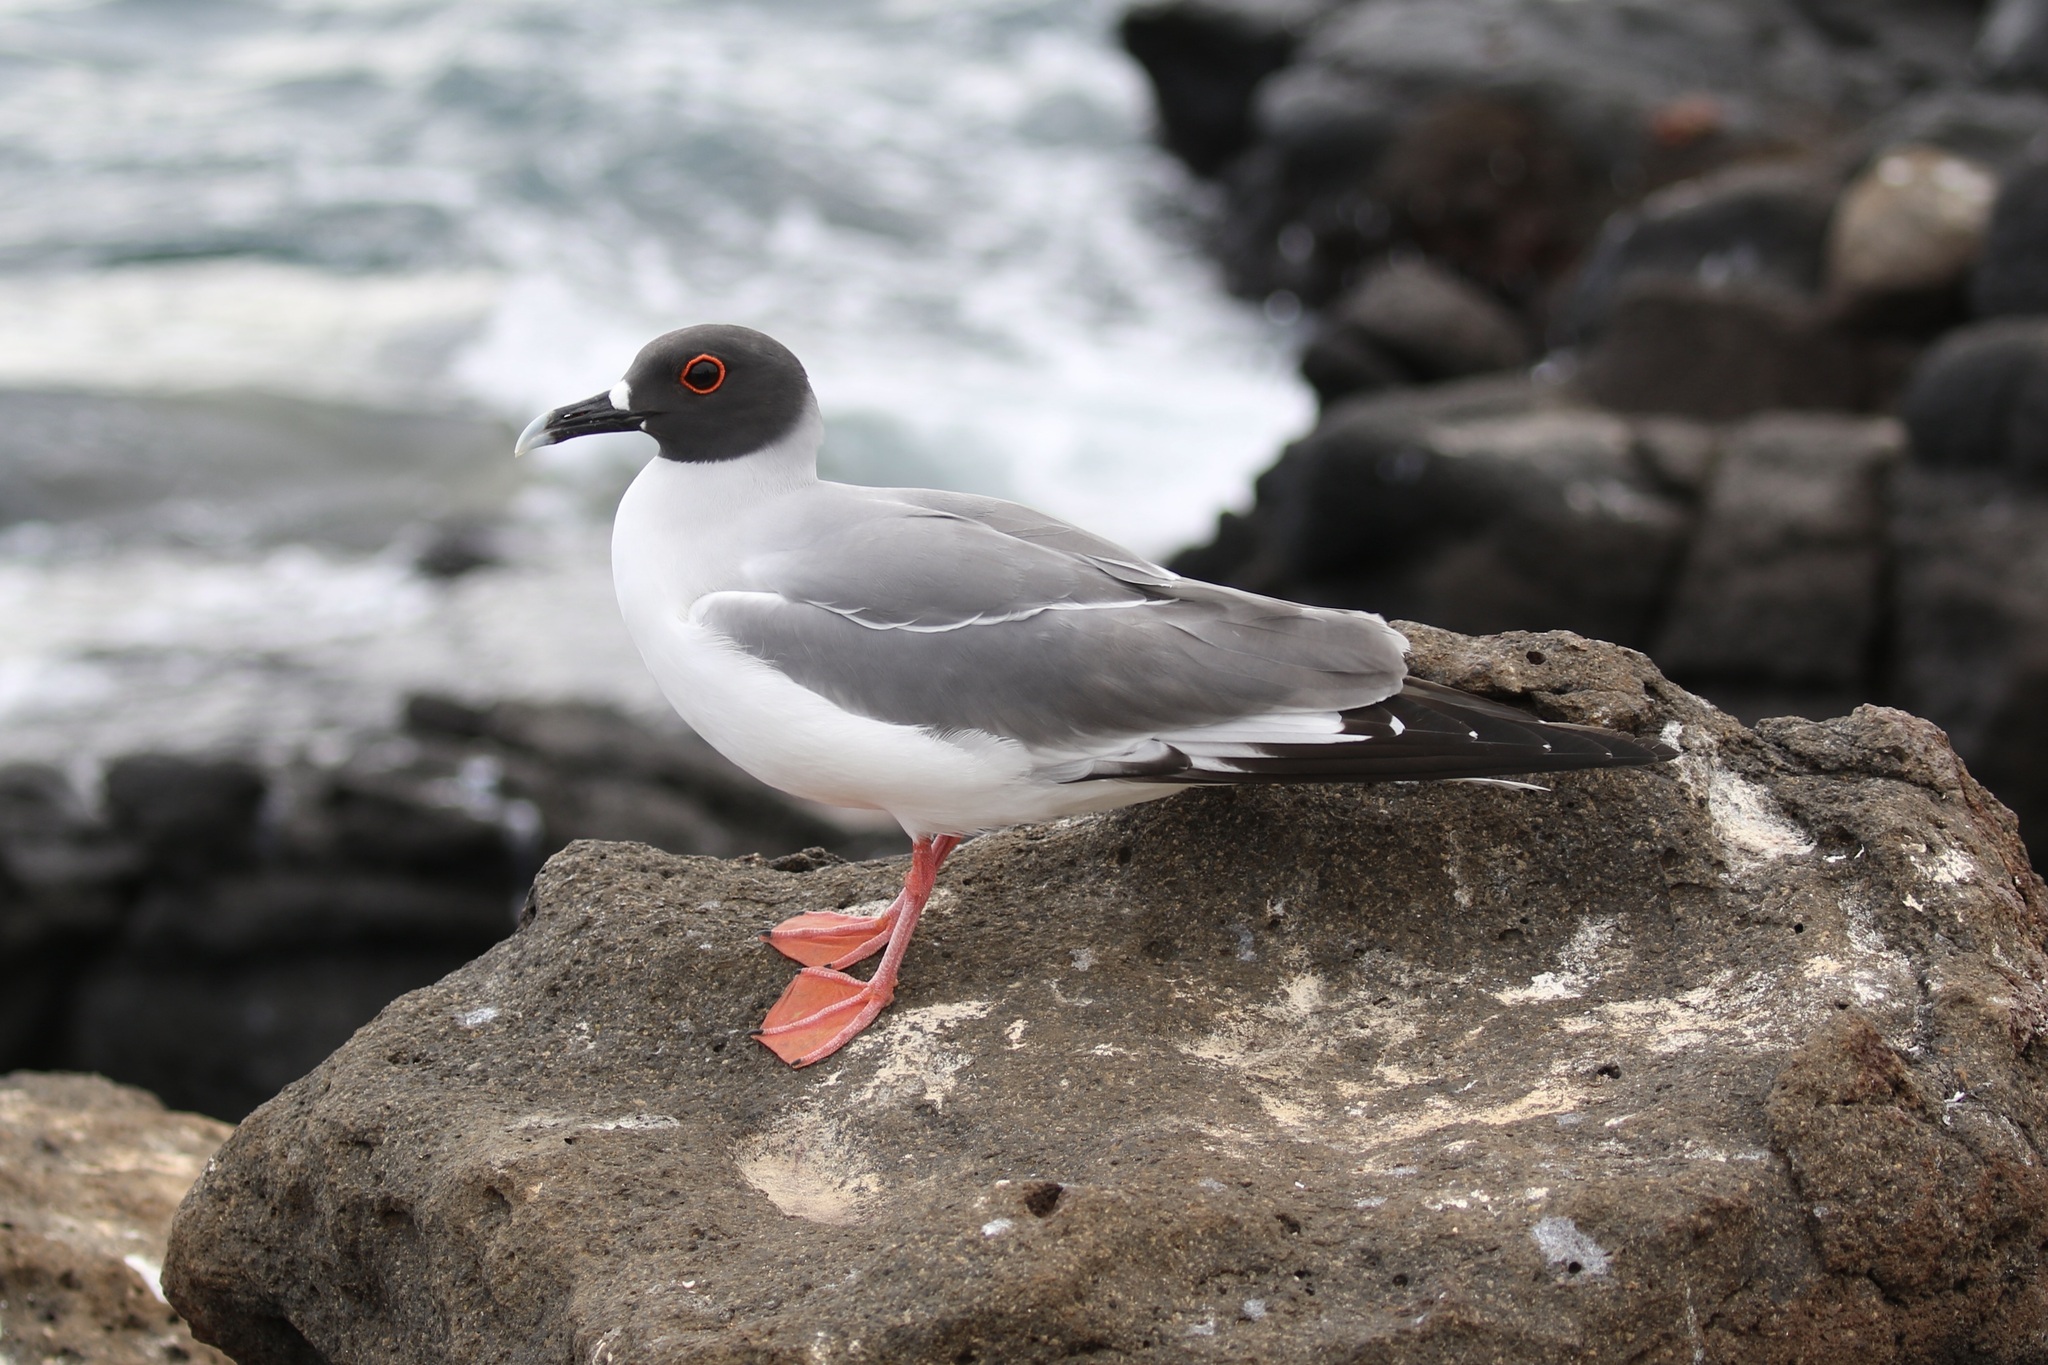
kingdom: Animalia
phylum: Chordata
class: Aves
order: Charadriiformes
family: Laridae
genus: Creagrus
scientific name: Creagrus furcatus
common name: Swallow-tailed gull
